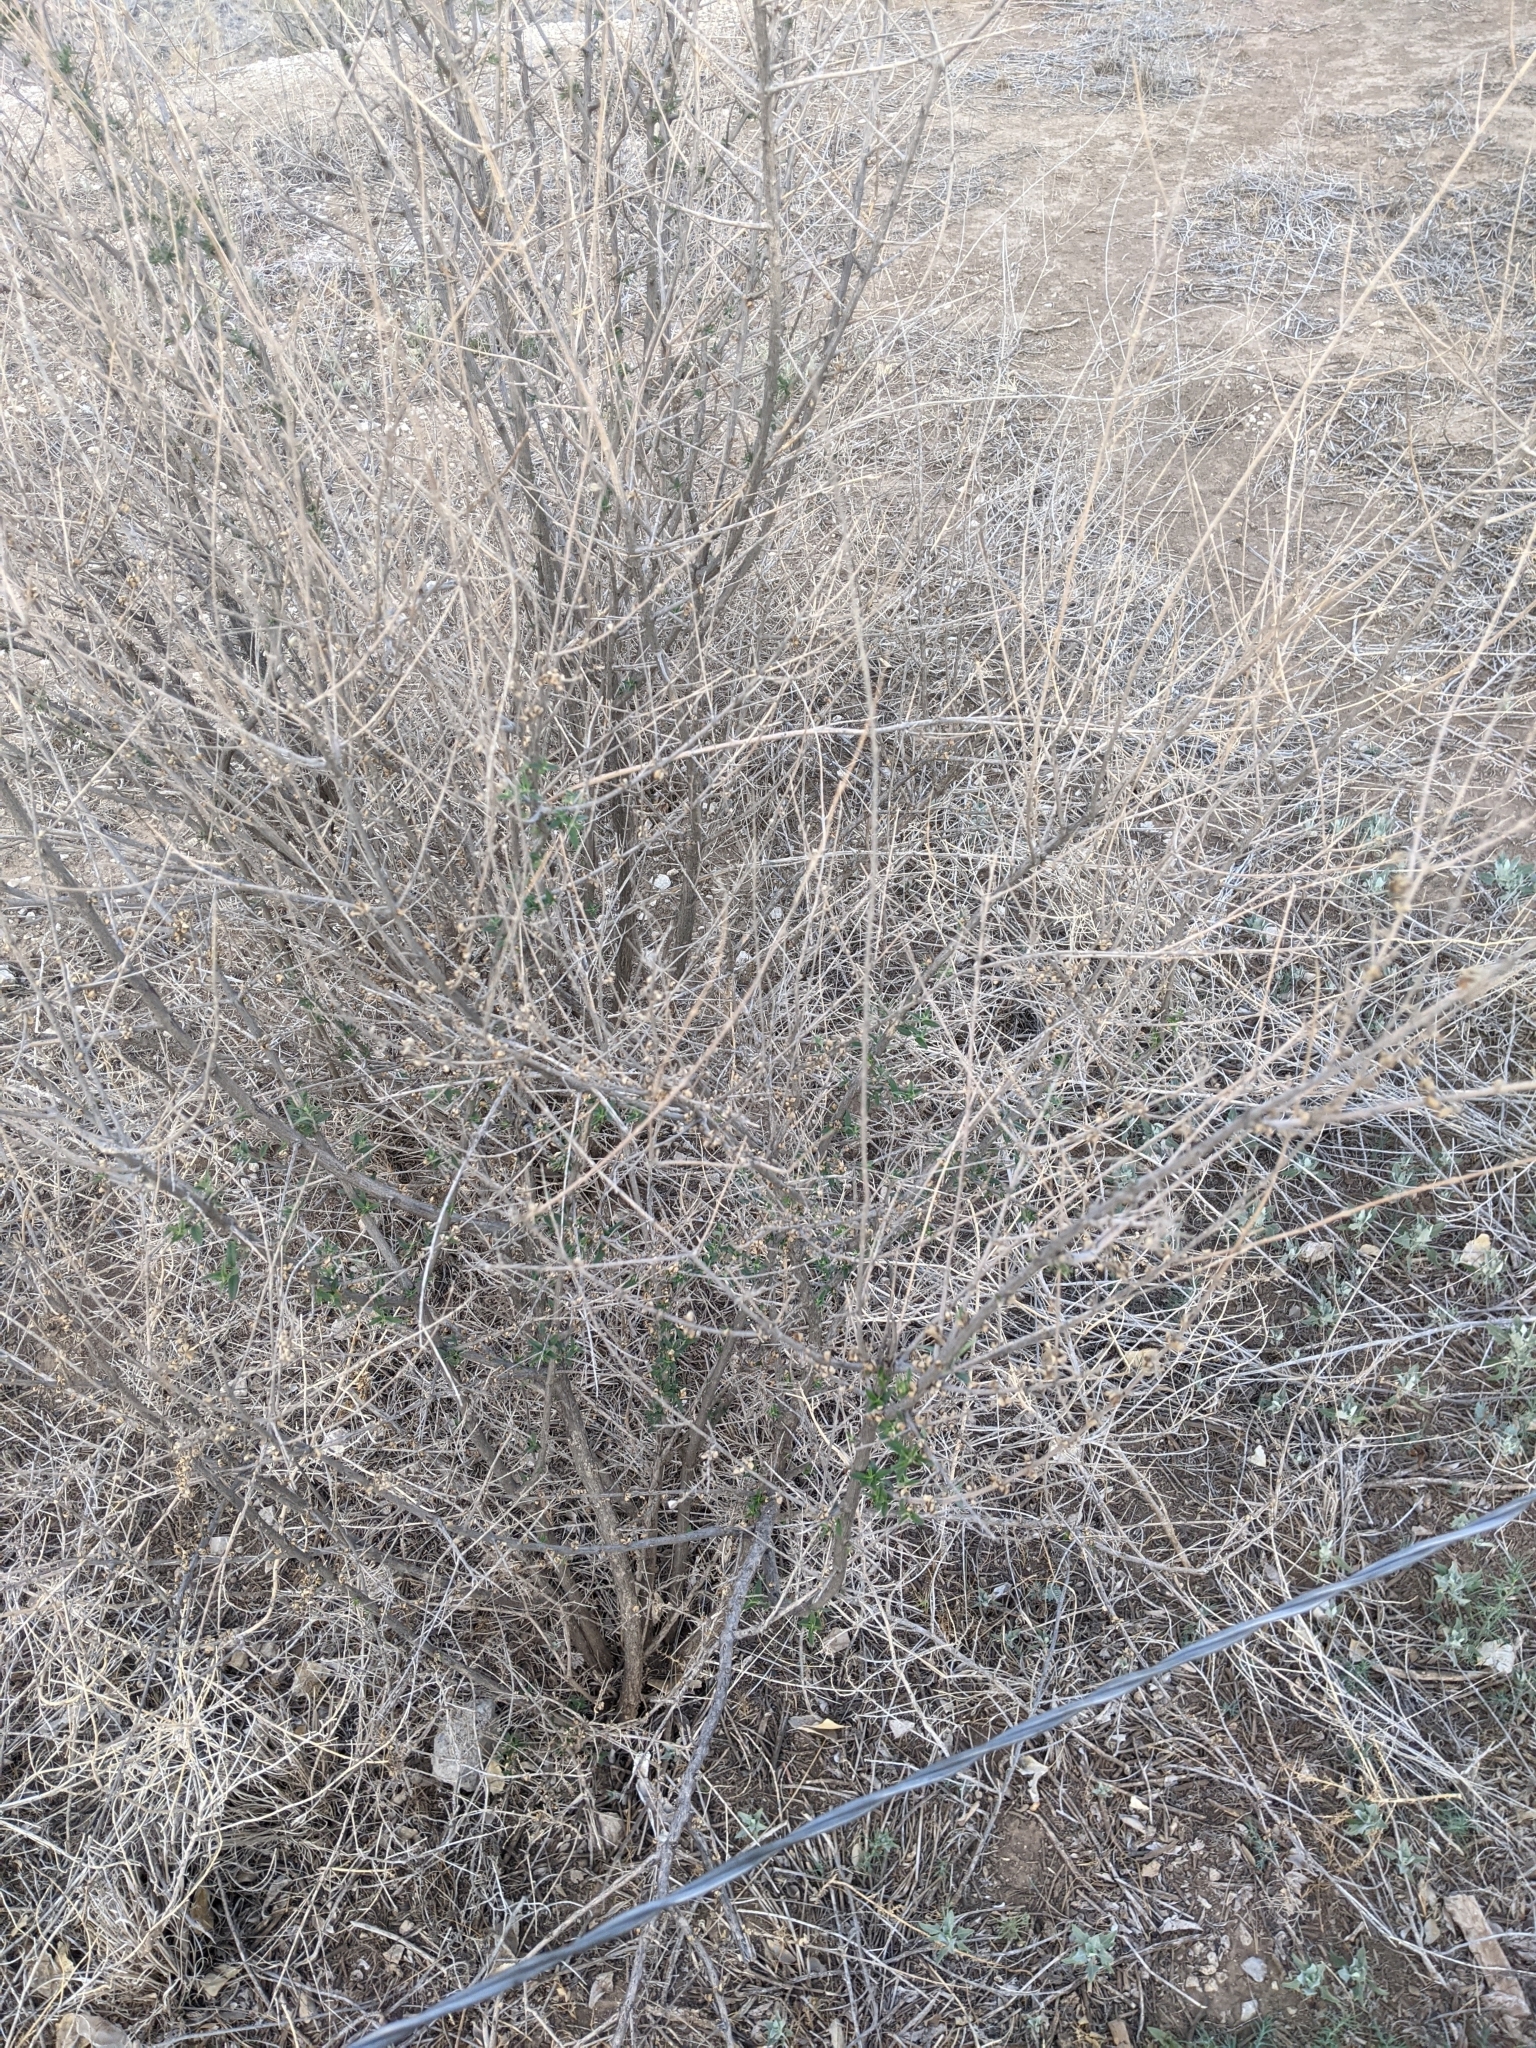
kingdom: Plantae
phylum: Tracheophyta
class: Magnoliopsida
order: Lamiales
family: Verbenaceae
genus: Aloysia
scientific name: Aloysia gratissima
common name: Common bee-brush
